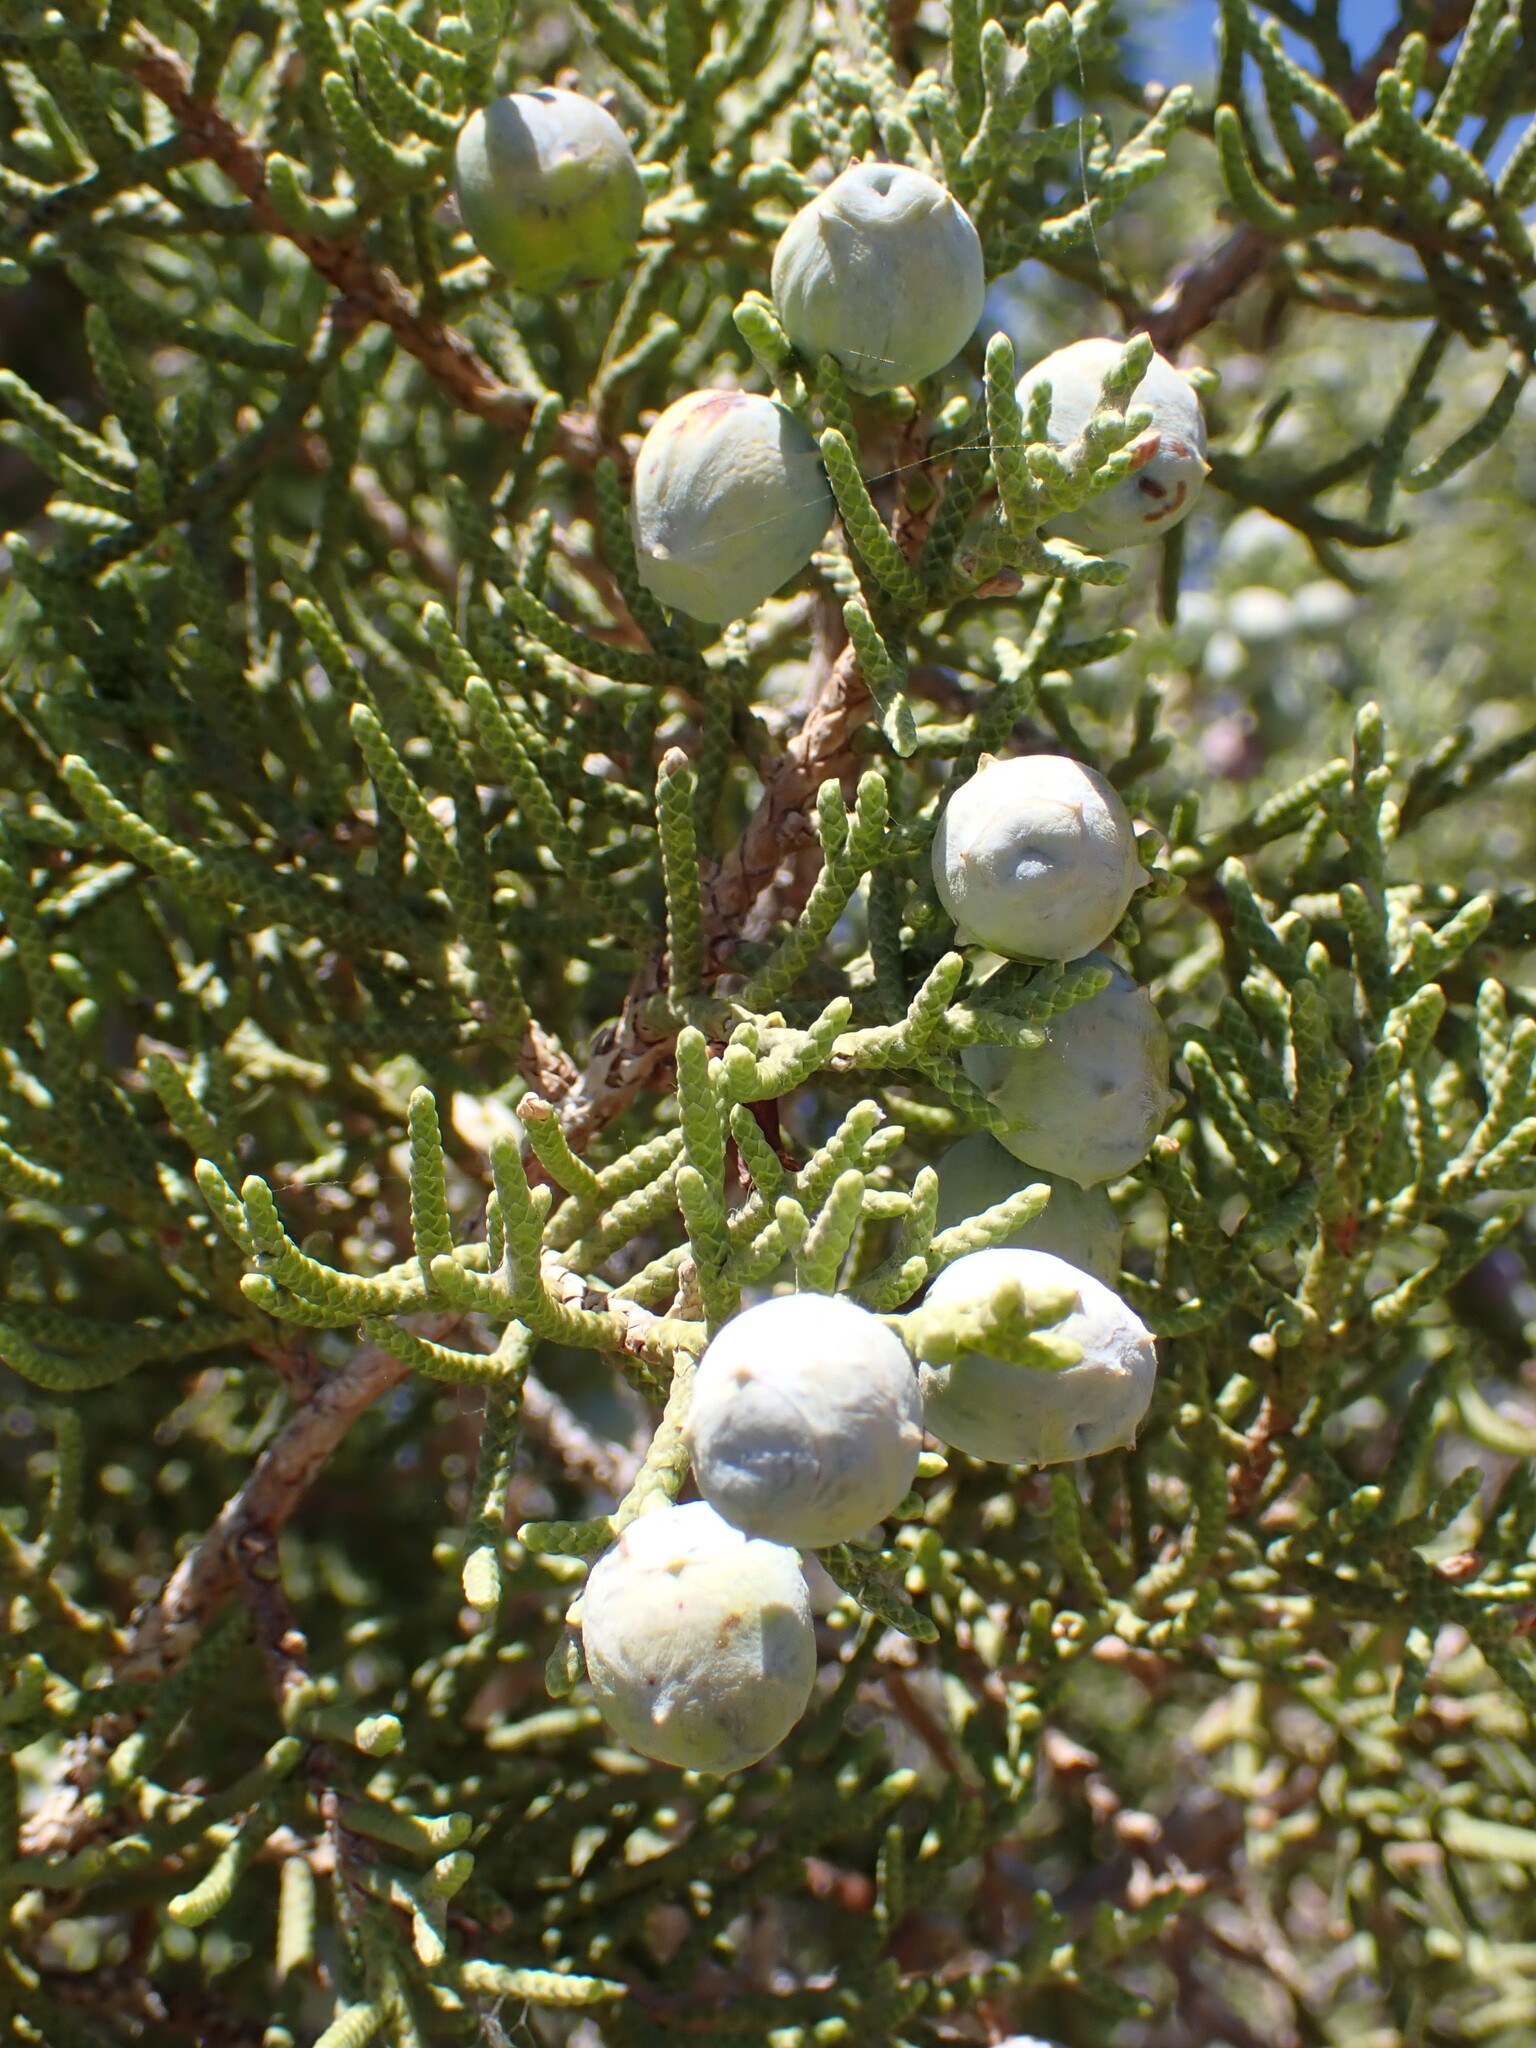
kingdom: Plantae
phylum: Tracheophyta
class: Pinopsida
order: Pinales
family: Cupressaceae
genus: Juniperus
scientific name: Juniperus californica
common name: California juniper
